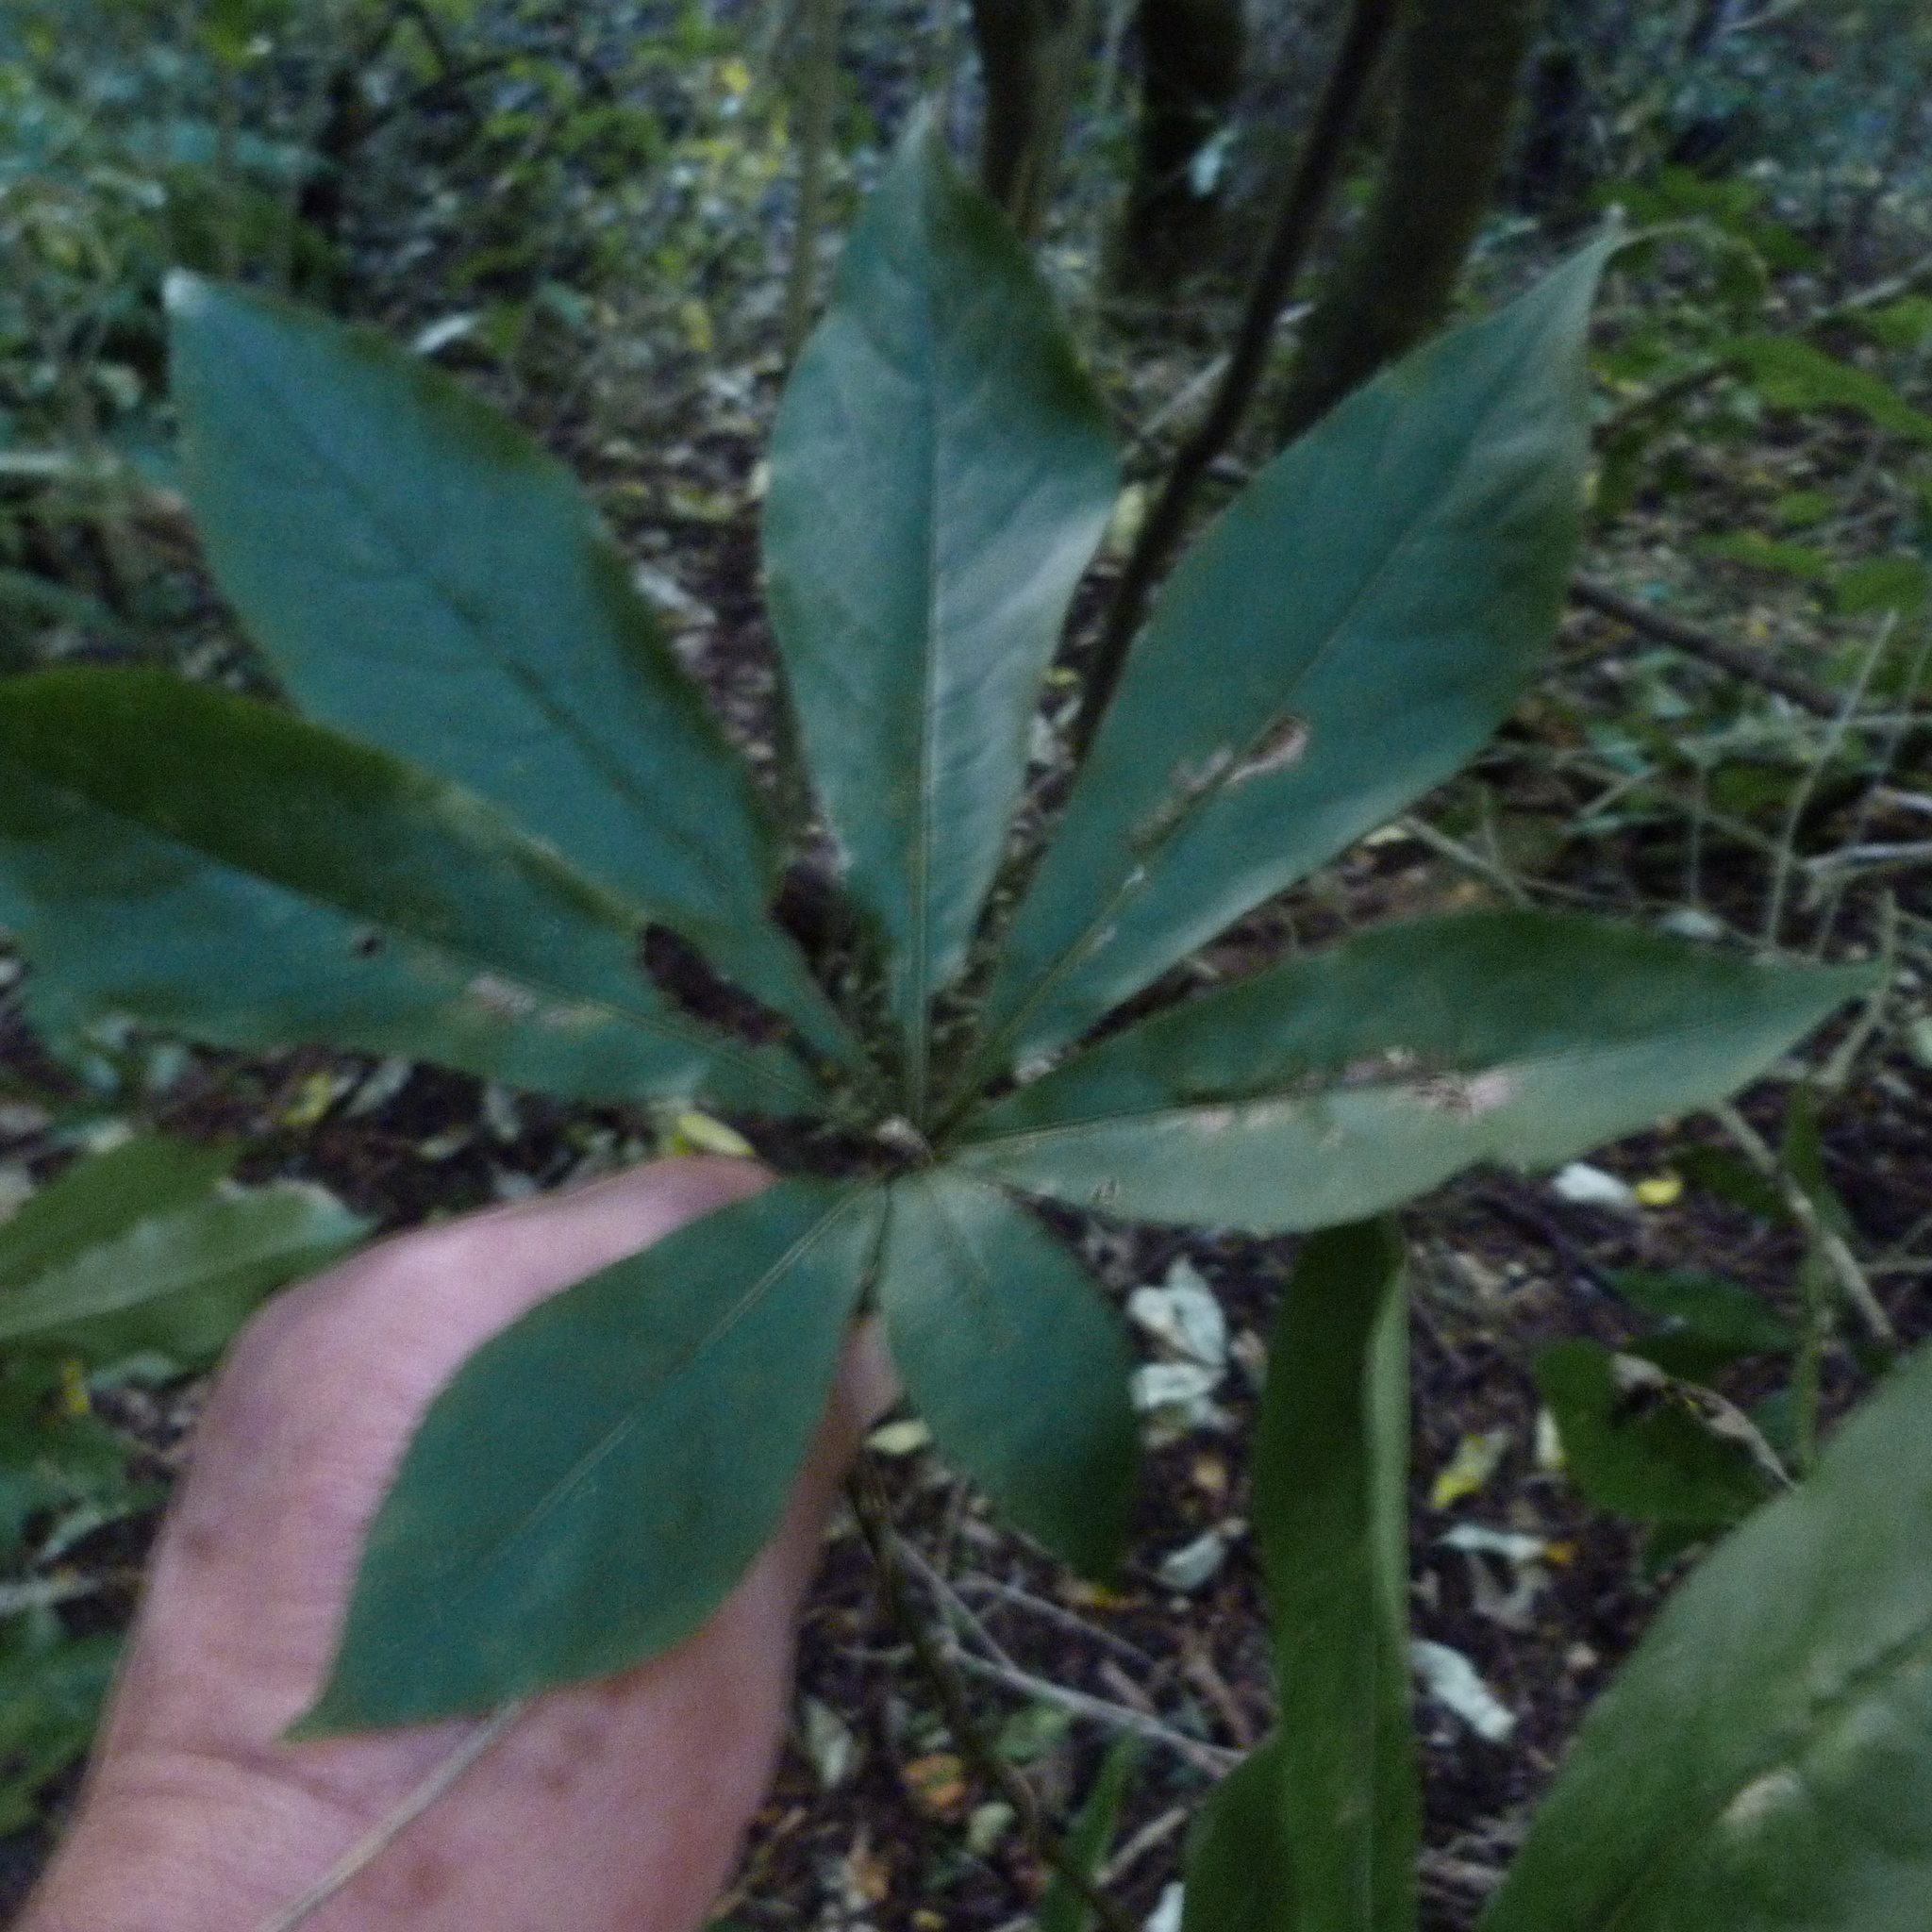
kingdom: Plantae
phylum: Tracheophyta
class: Magnoliopsida
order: Apiales
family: Araliaceae
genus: Schefflera
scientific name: Schefflera digitata
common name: Pate
